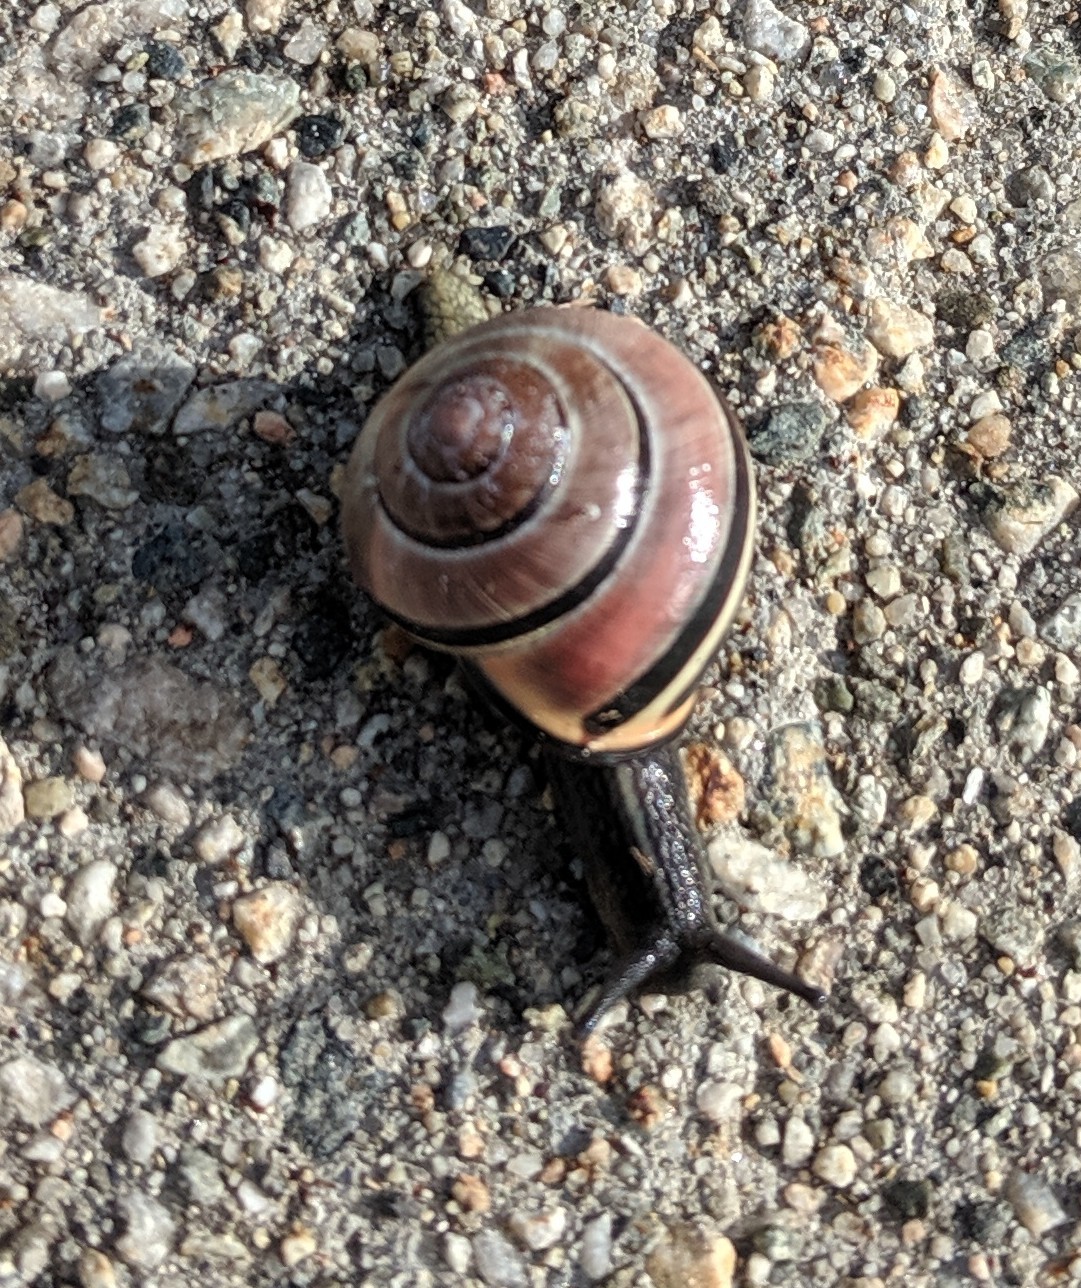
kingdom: Animalia
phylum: Mollusca
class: Gastropoda
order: Stylommatophora
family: Helicidae
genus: Cepaea
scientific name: Cepaea nemoralis
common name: Grovesnail
